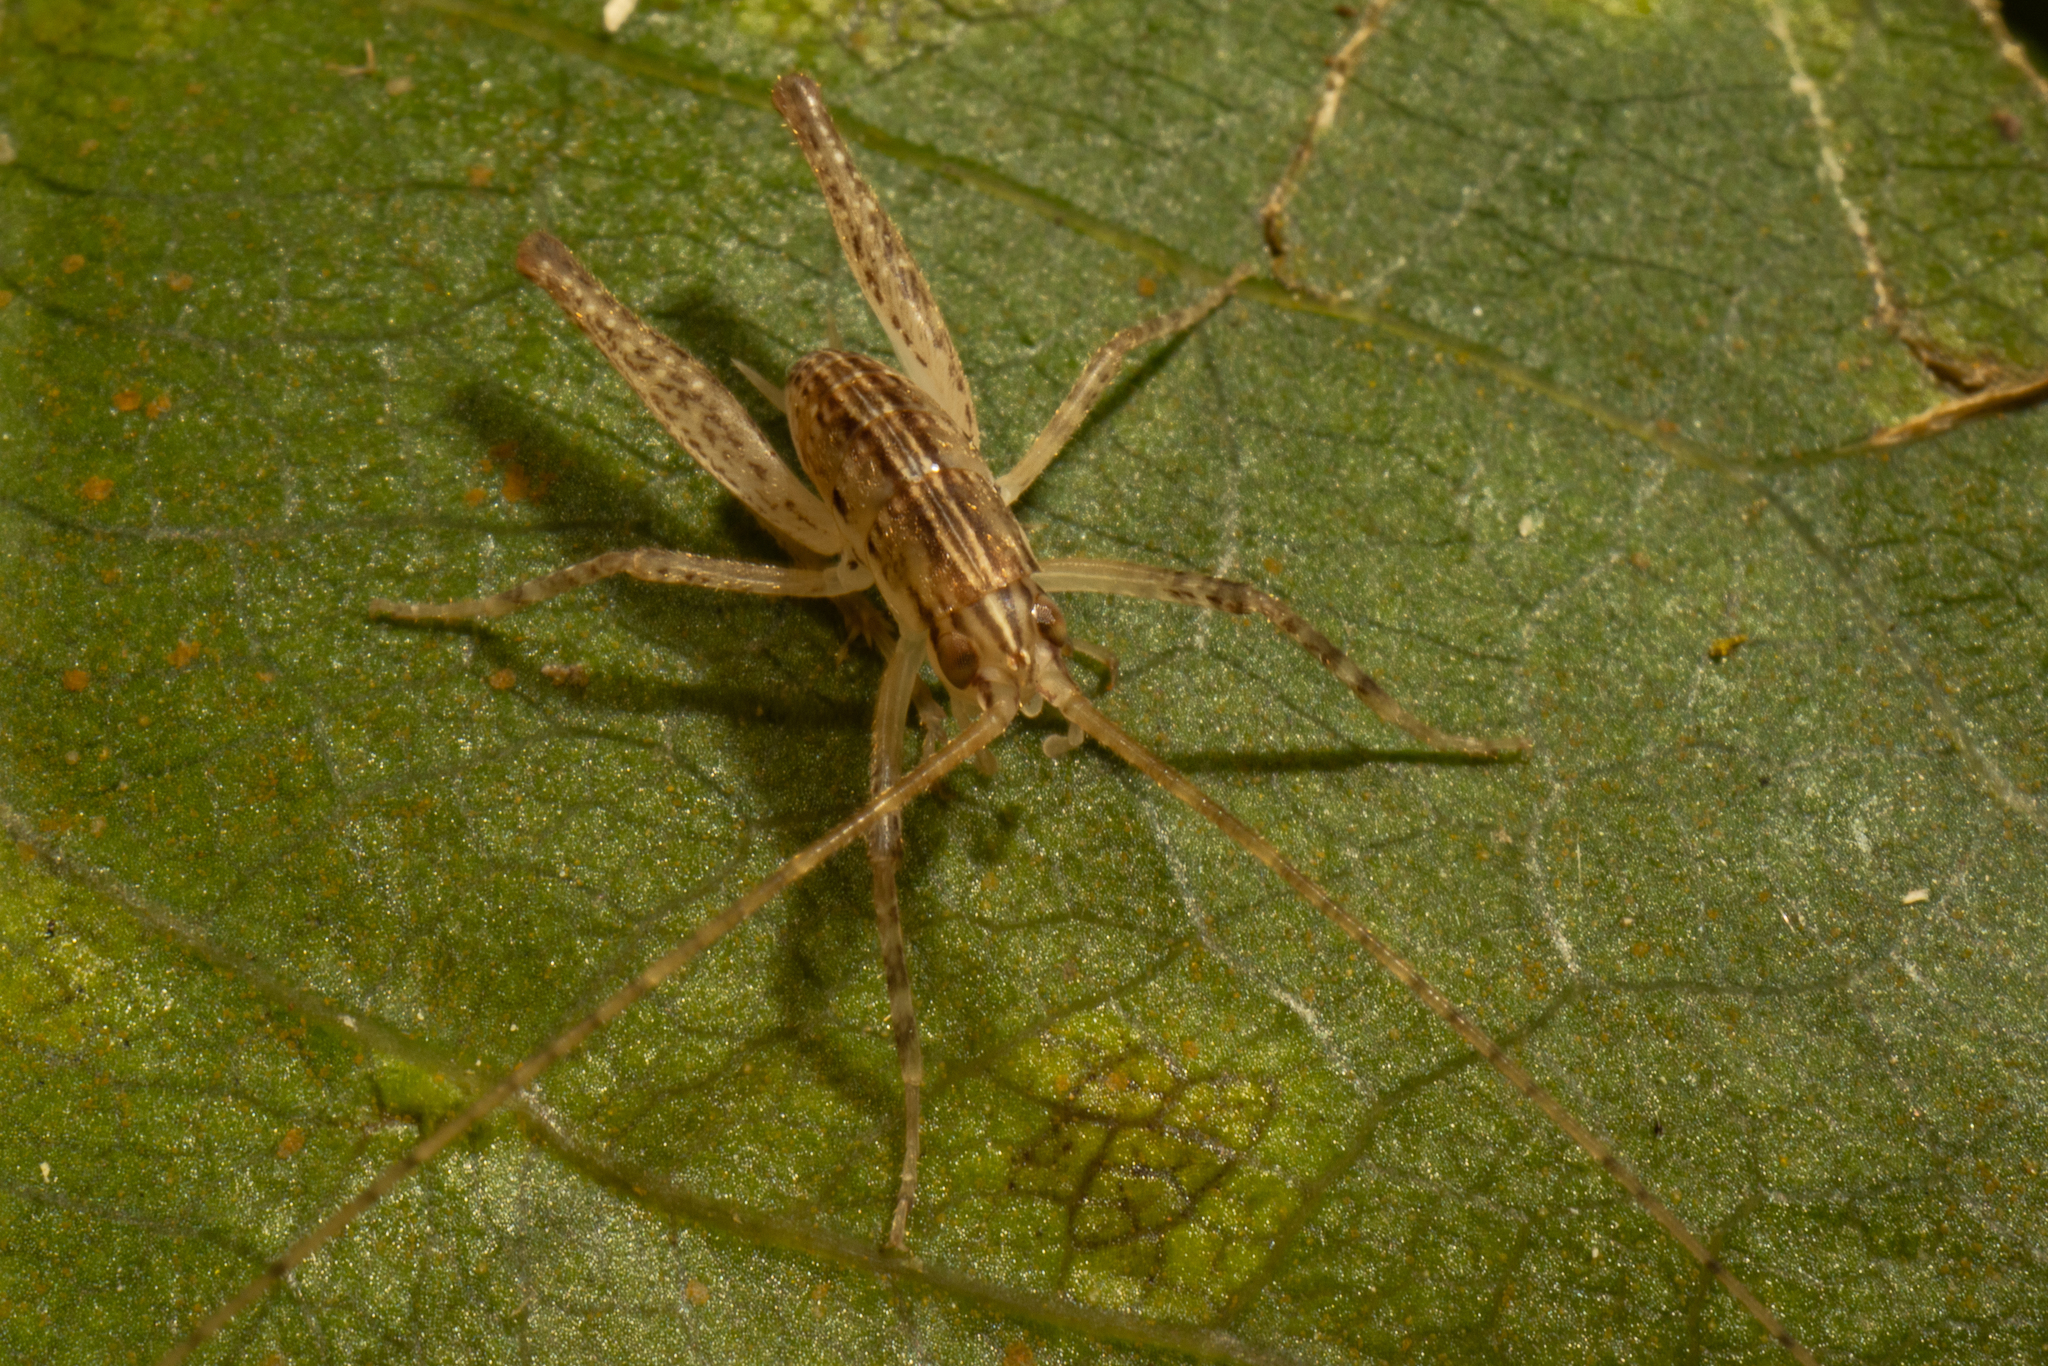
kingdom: Animalia
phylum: Arthropoda
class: Insecta
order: Orthoptera
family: Rhaphidophoridae
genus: Talitropsis
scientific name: Talitropsis poduroides
